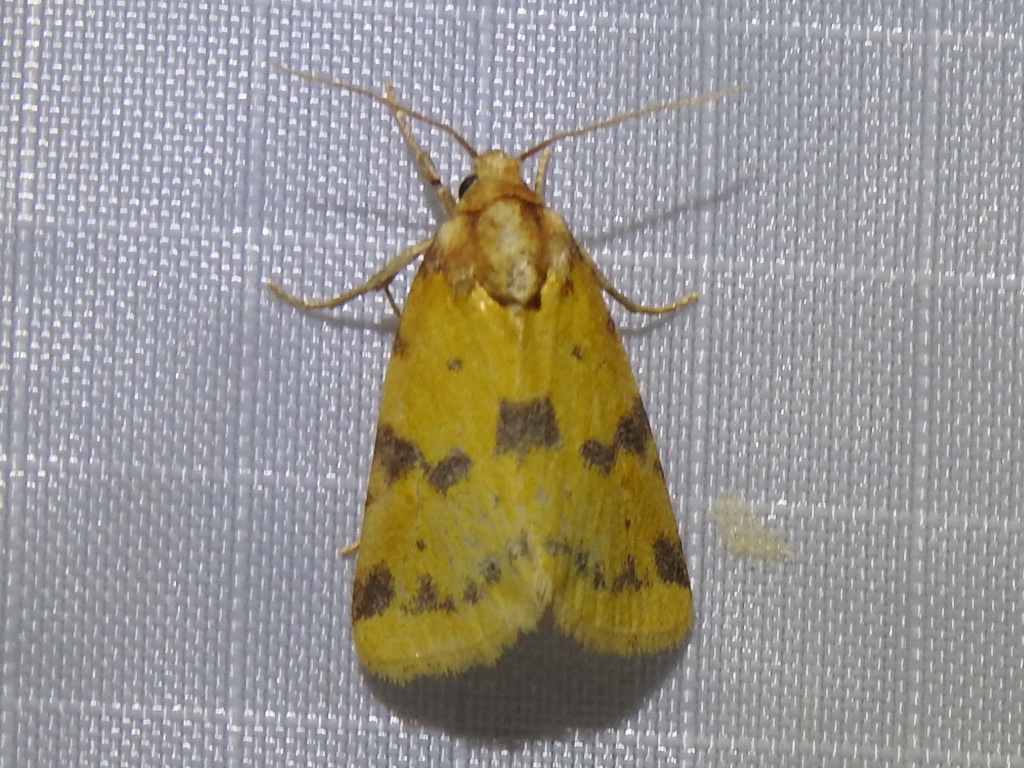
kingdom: Animalia
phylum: Arthropoda
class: Insecta
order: Lepidoptera
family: Noctuidae
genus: Azenia
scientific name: Azenia obtusa
